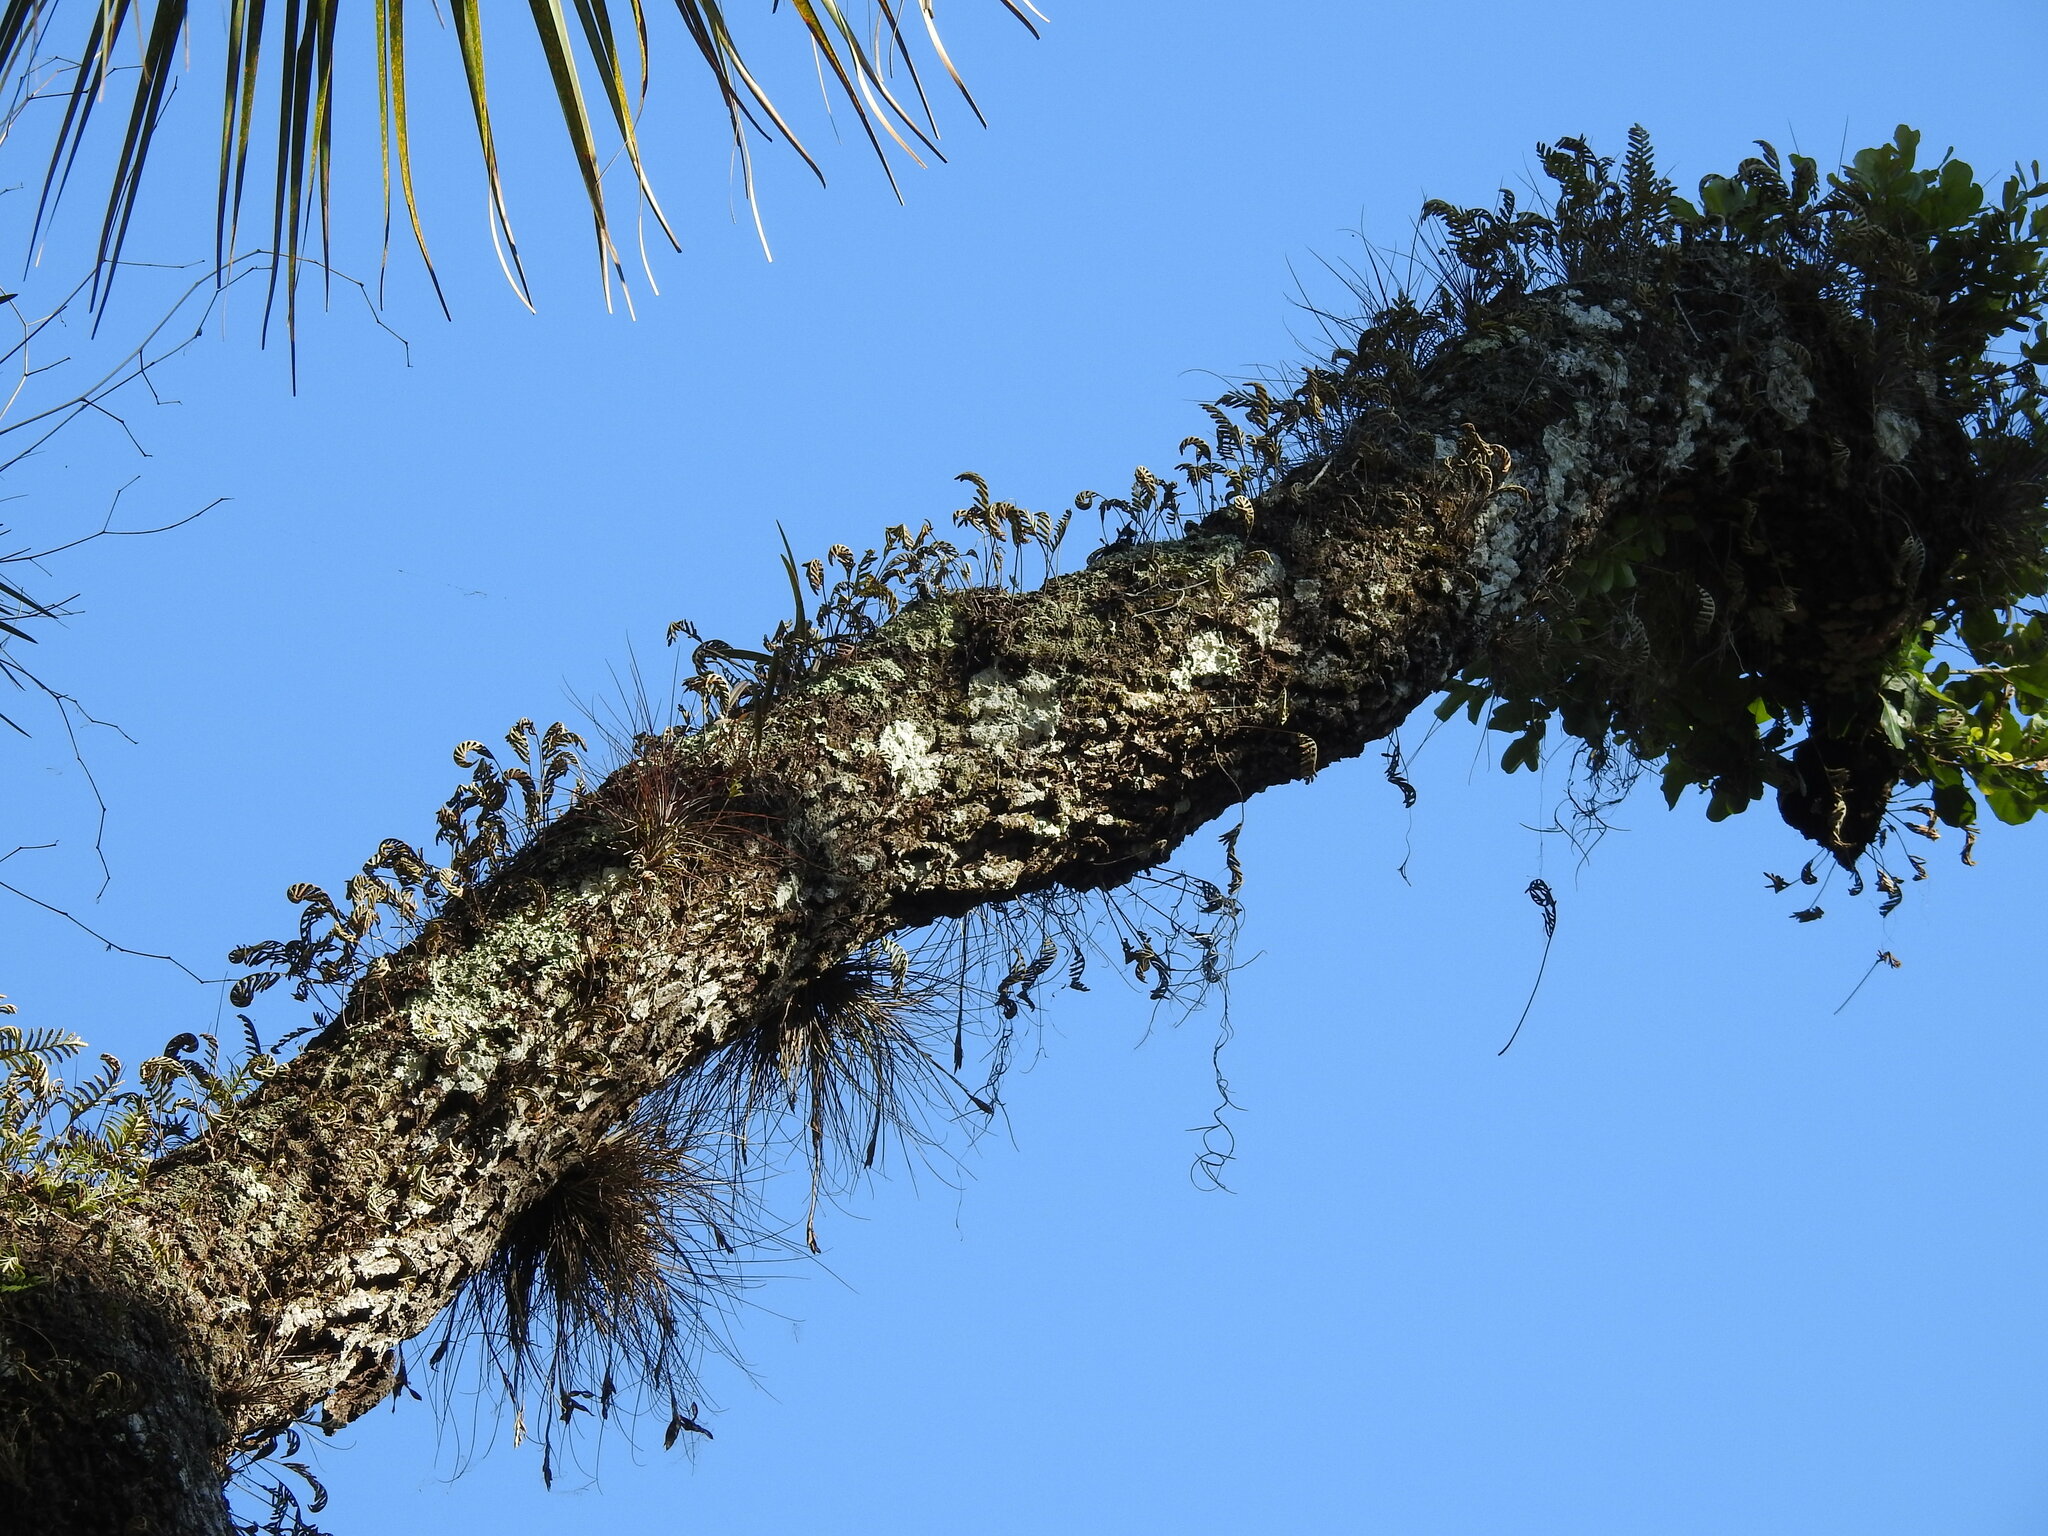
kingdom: Plantae
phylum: Tracheophyta
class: Polypodiopsida
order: Polypodiales
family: Polypodiaceae
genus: Pleopeltis
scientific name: Pleopeltis michauxiana
